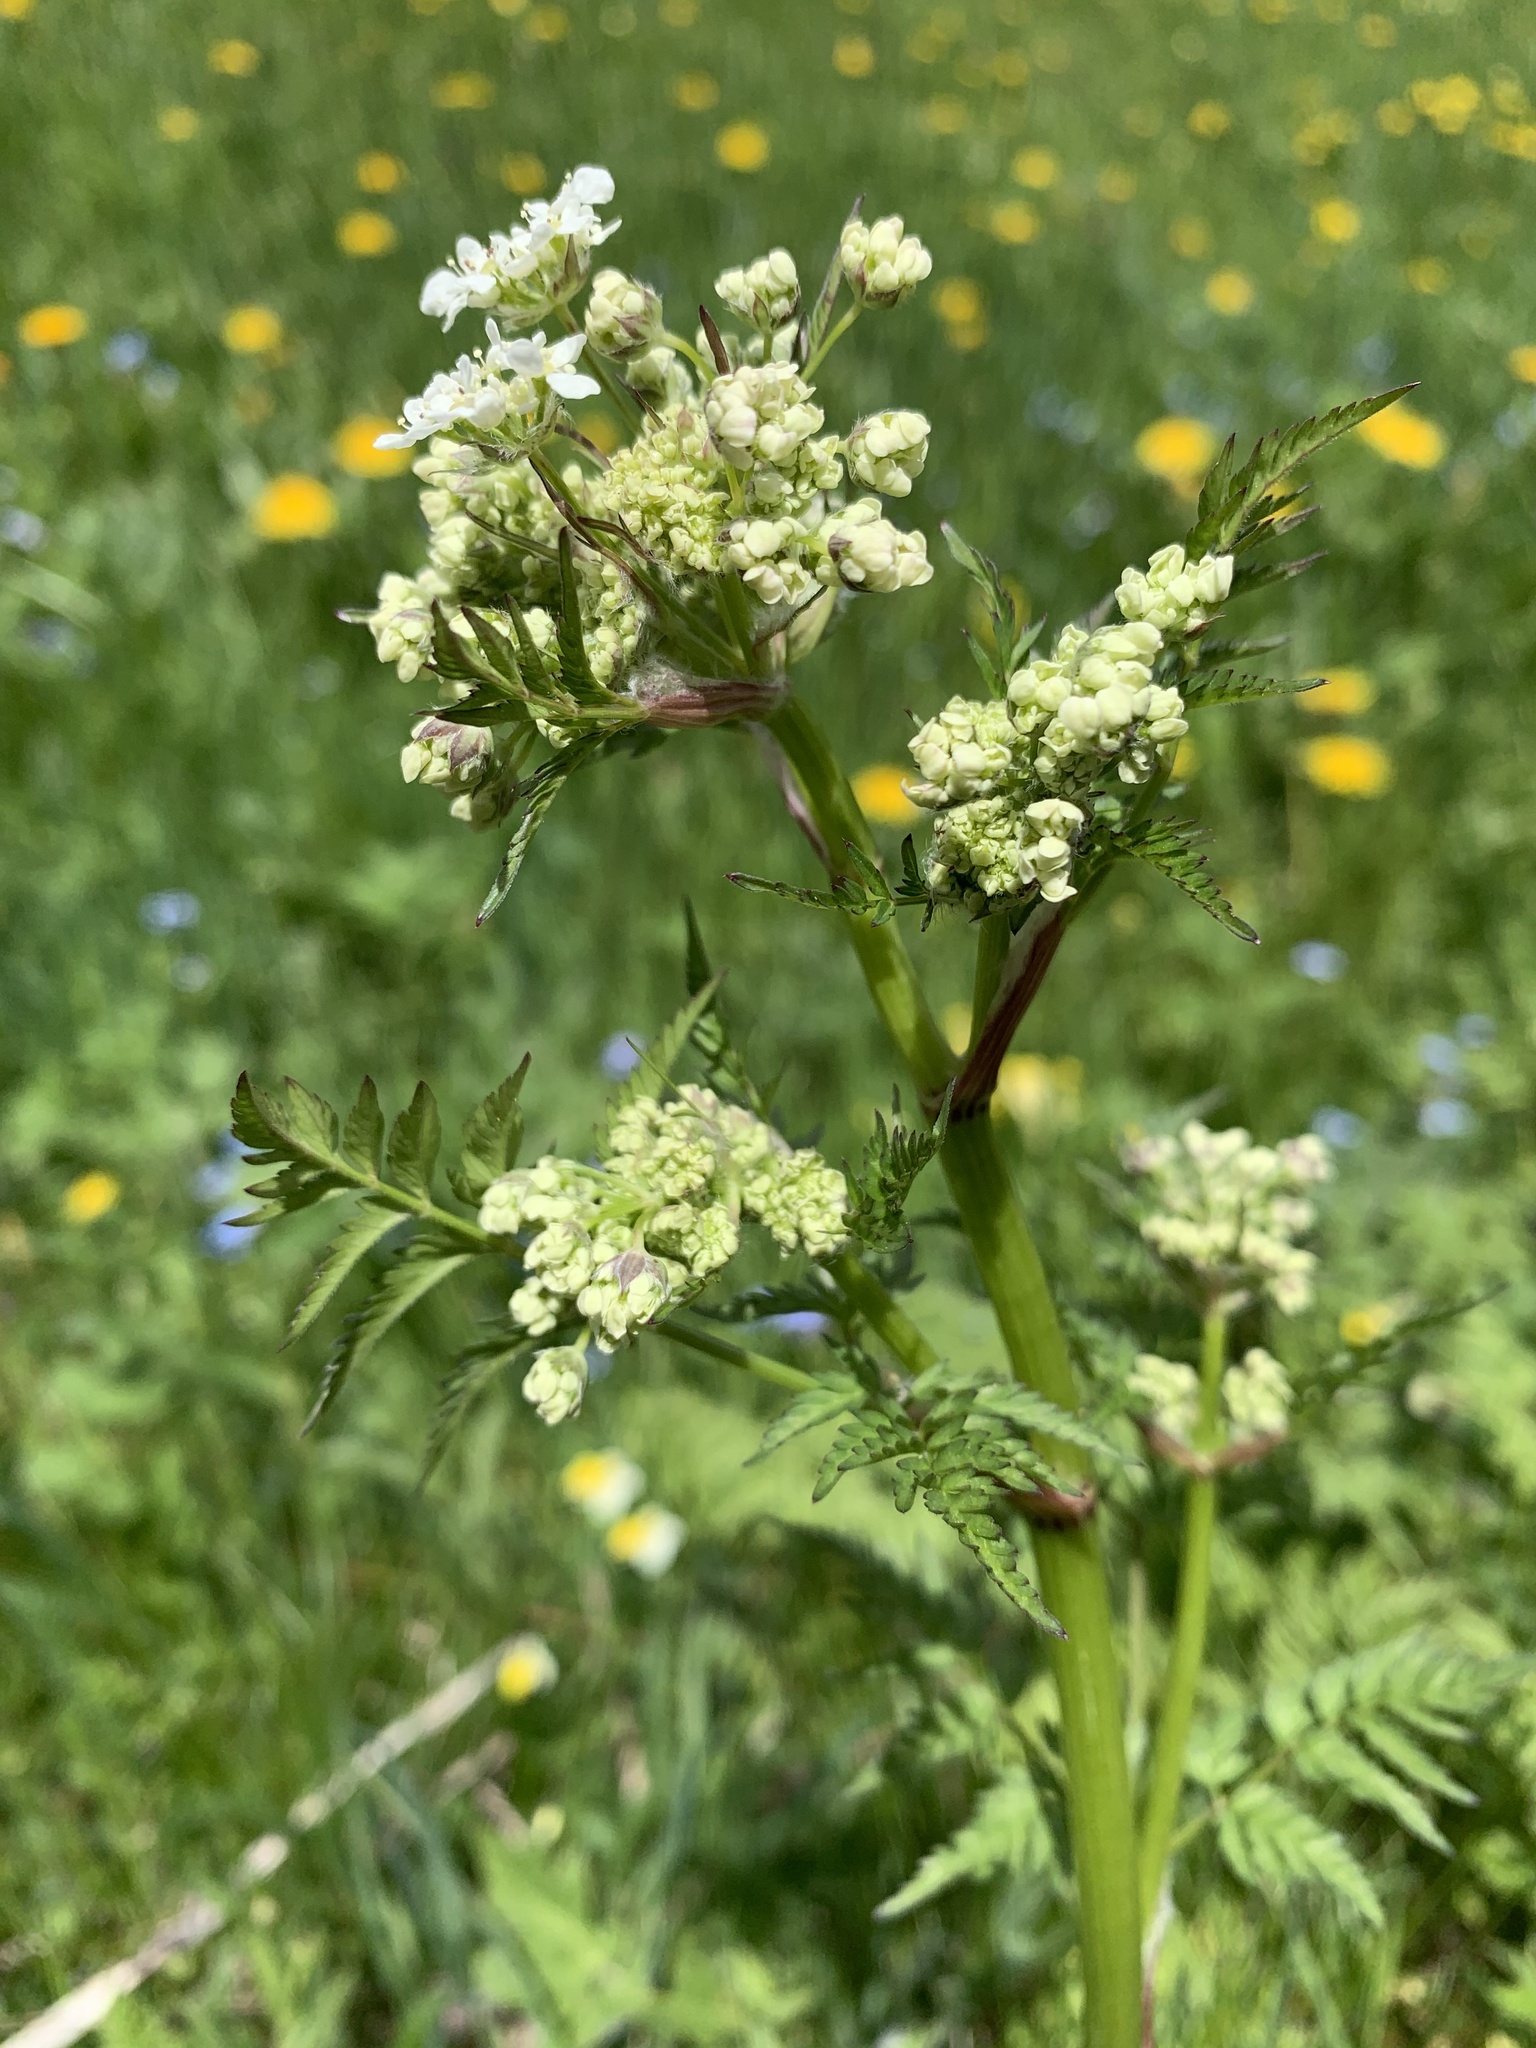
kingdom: Plantae
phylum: Tracheophyta
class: Magnoliopsida
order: Apiales
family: Apiaceae
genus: Anthriscus
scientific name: Anthriscus sylvestris
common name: Cow parsley
